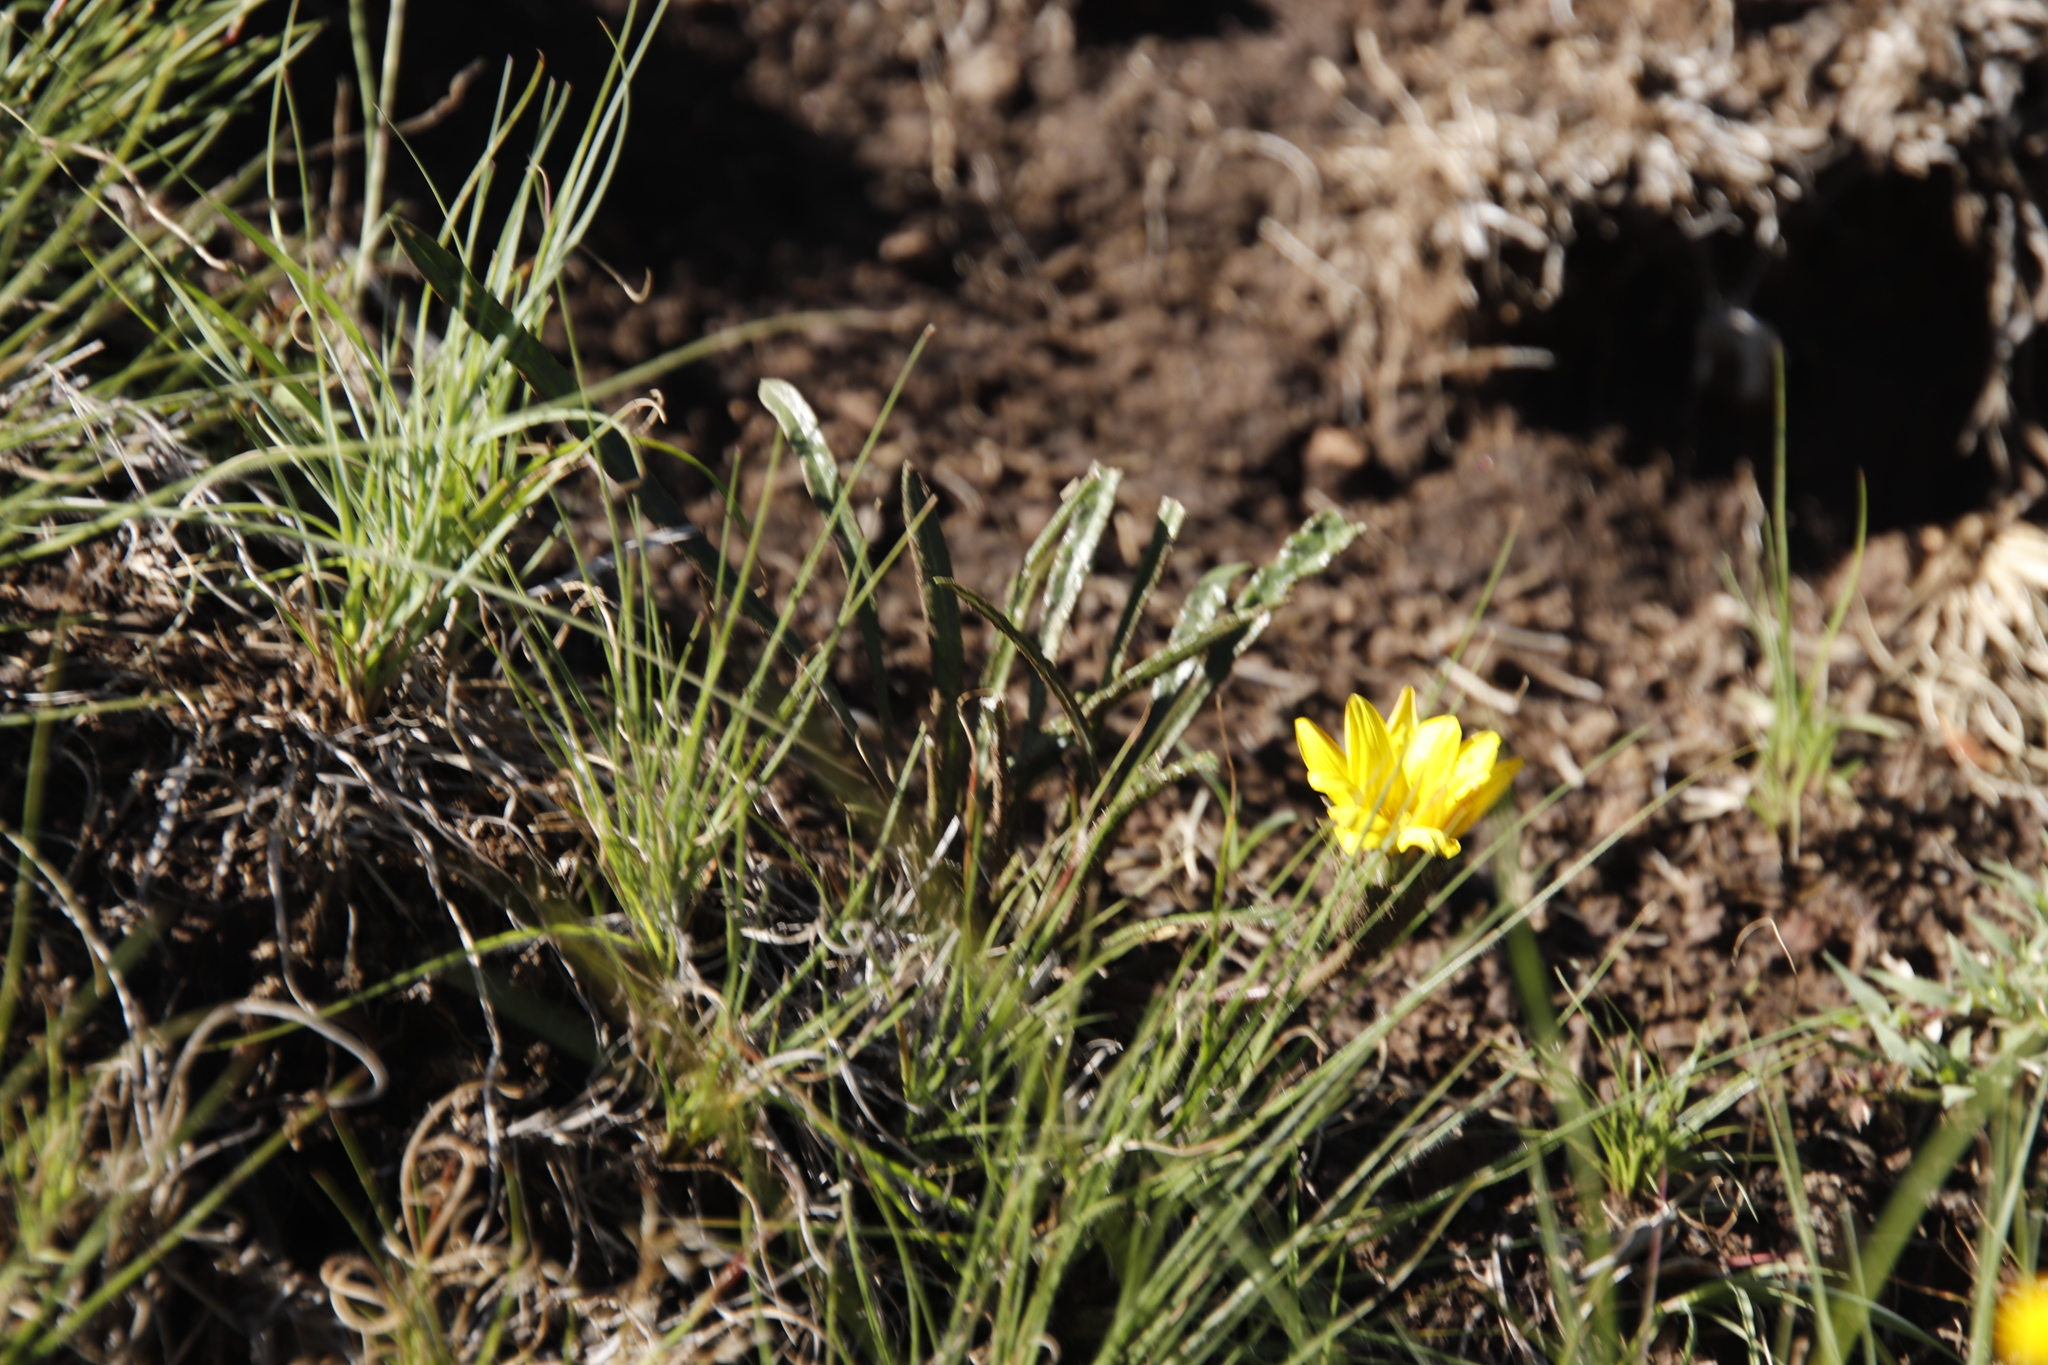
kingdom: Plantae
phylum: Tracheophyta
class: Magnoliopsida
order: Asterales
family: Asteraceae
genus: Gazania
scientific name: Gazania krebsiana
